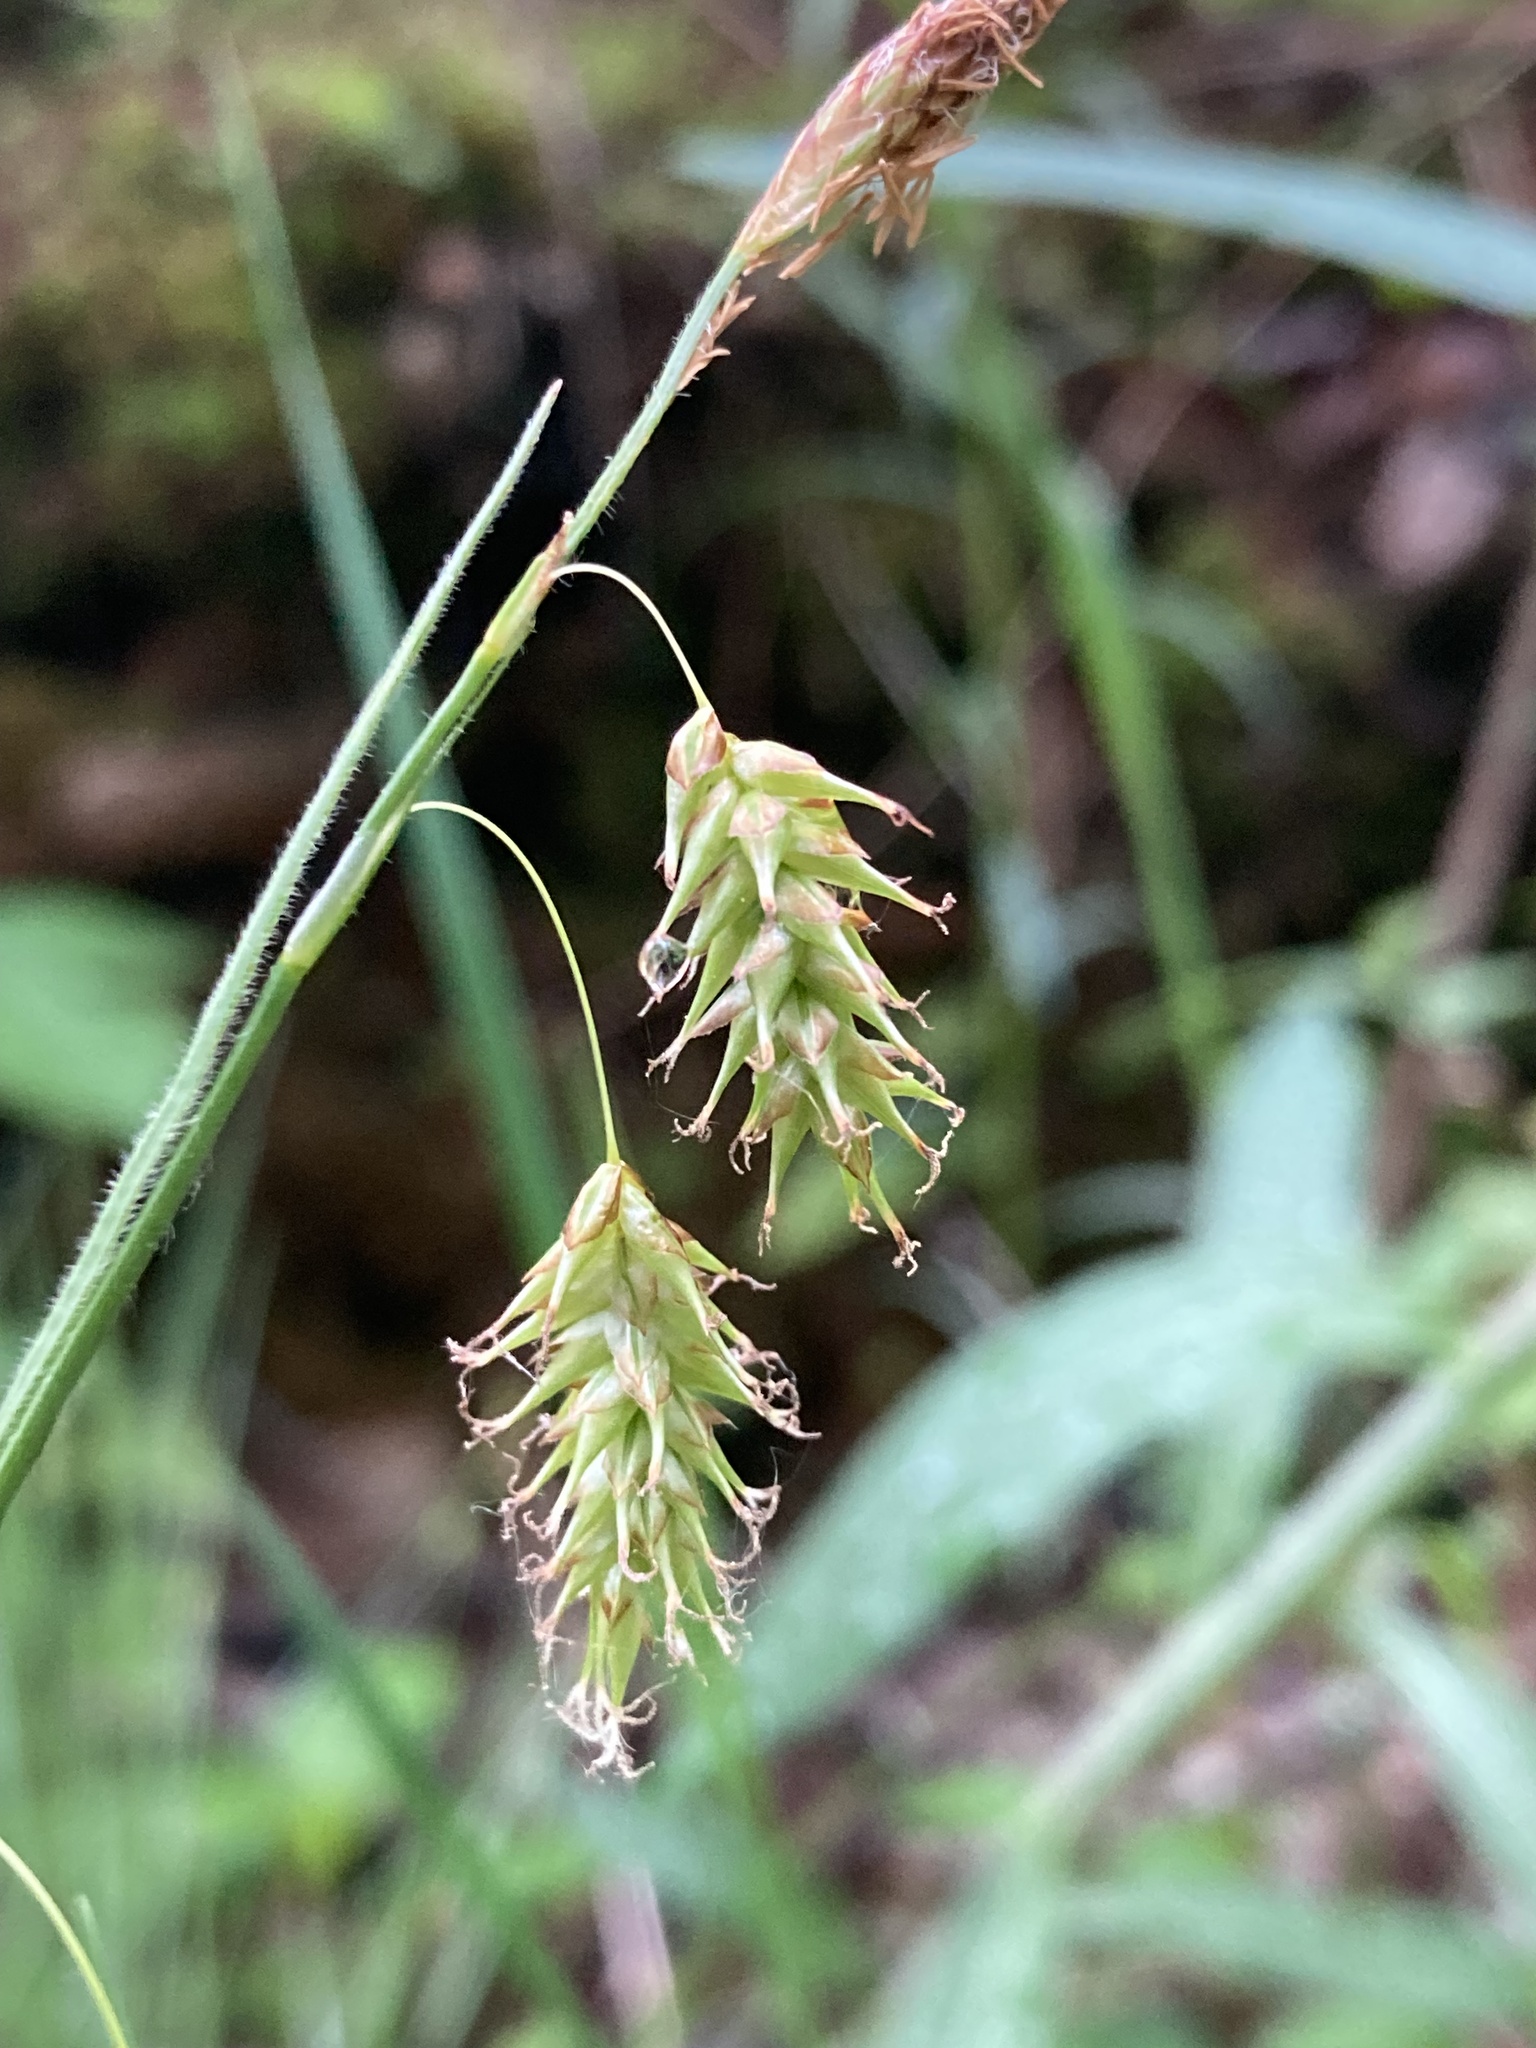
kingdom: Plantae
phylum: Tracheophyta
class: Liliopsida
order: Poales
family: Cyperaceae
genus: Carex
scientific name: Carex castanea
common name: Chestnut sedge
